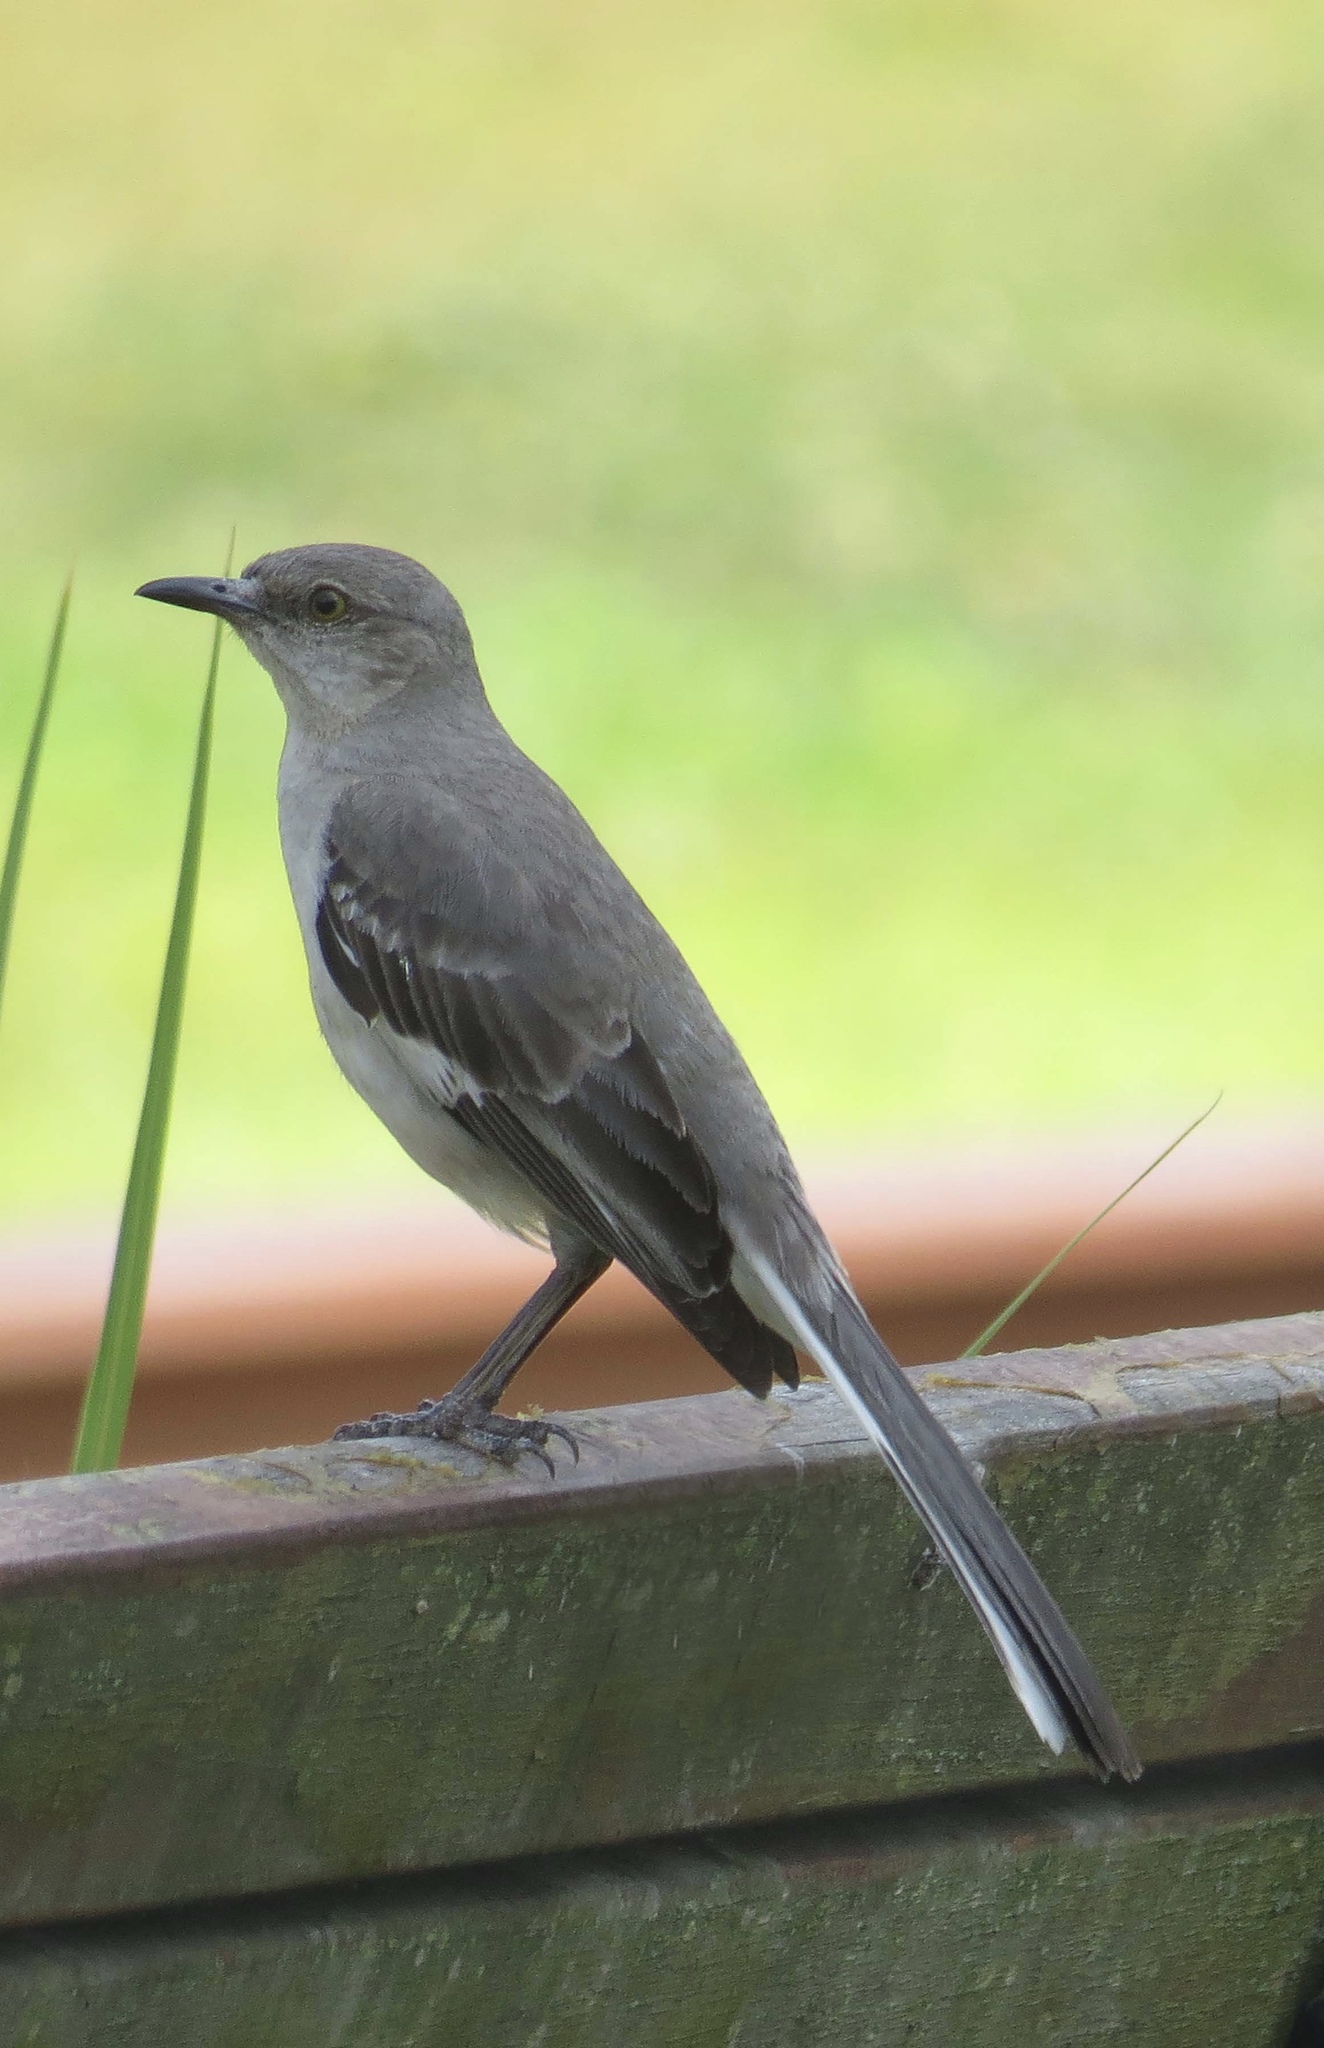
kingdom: Animalia
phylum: Chordata
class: Aves
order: Passeriformes
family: Mimidae
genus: Mimus
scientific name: Mimus polyglottos
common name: Northern mockingbird
